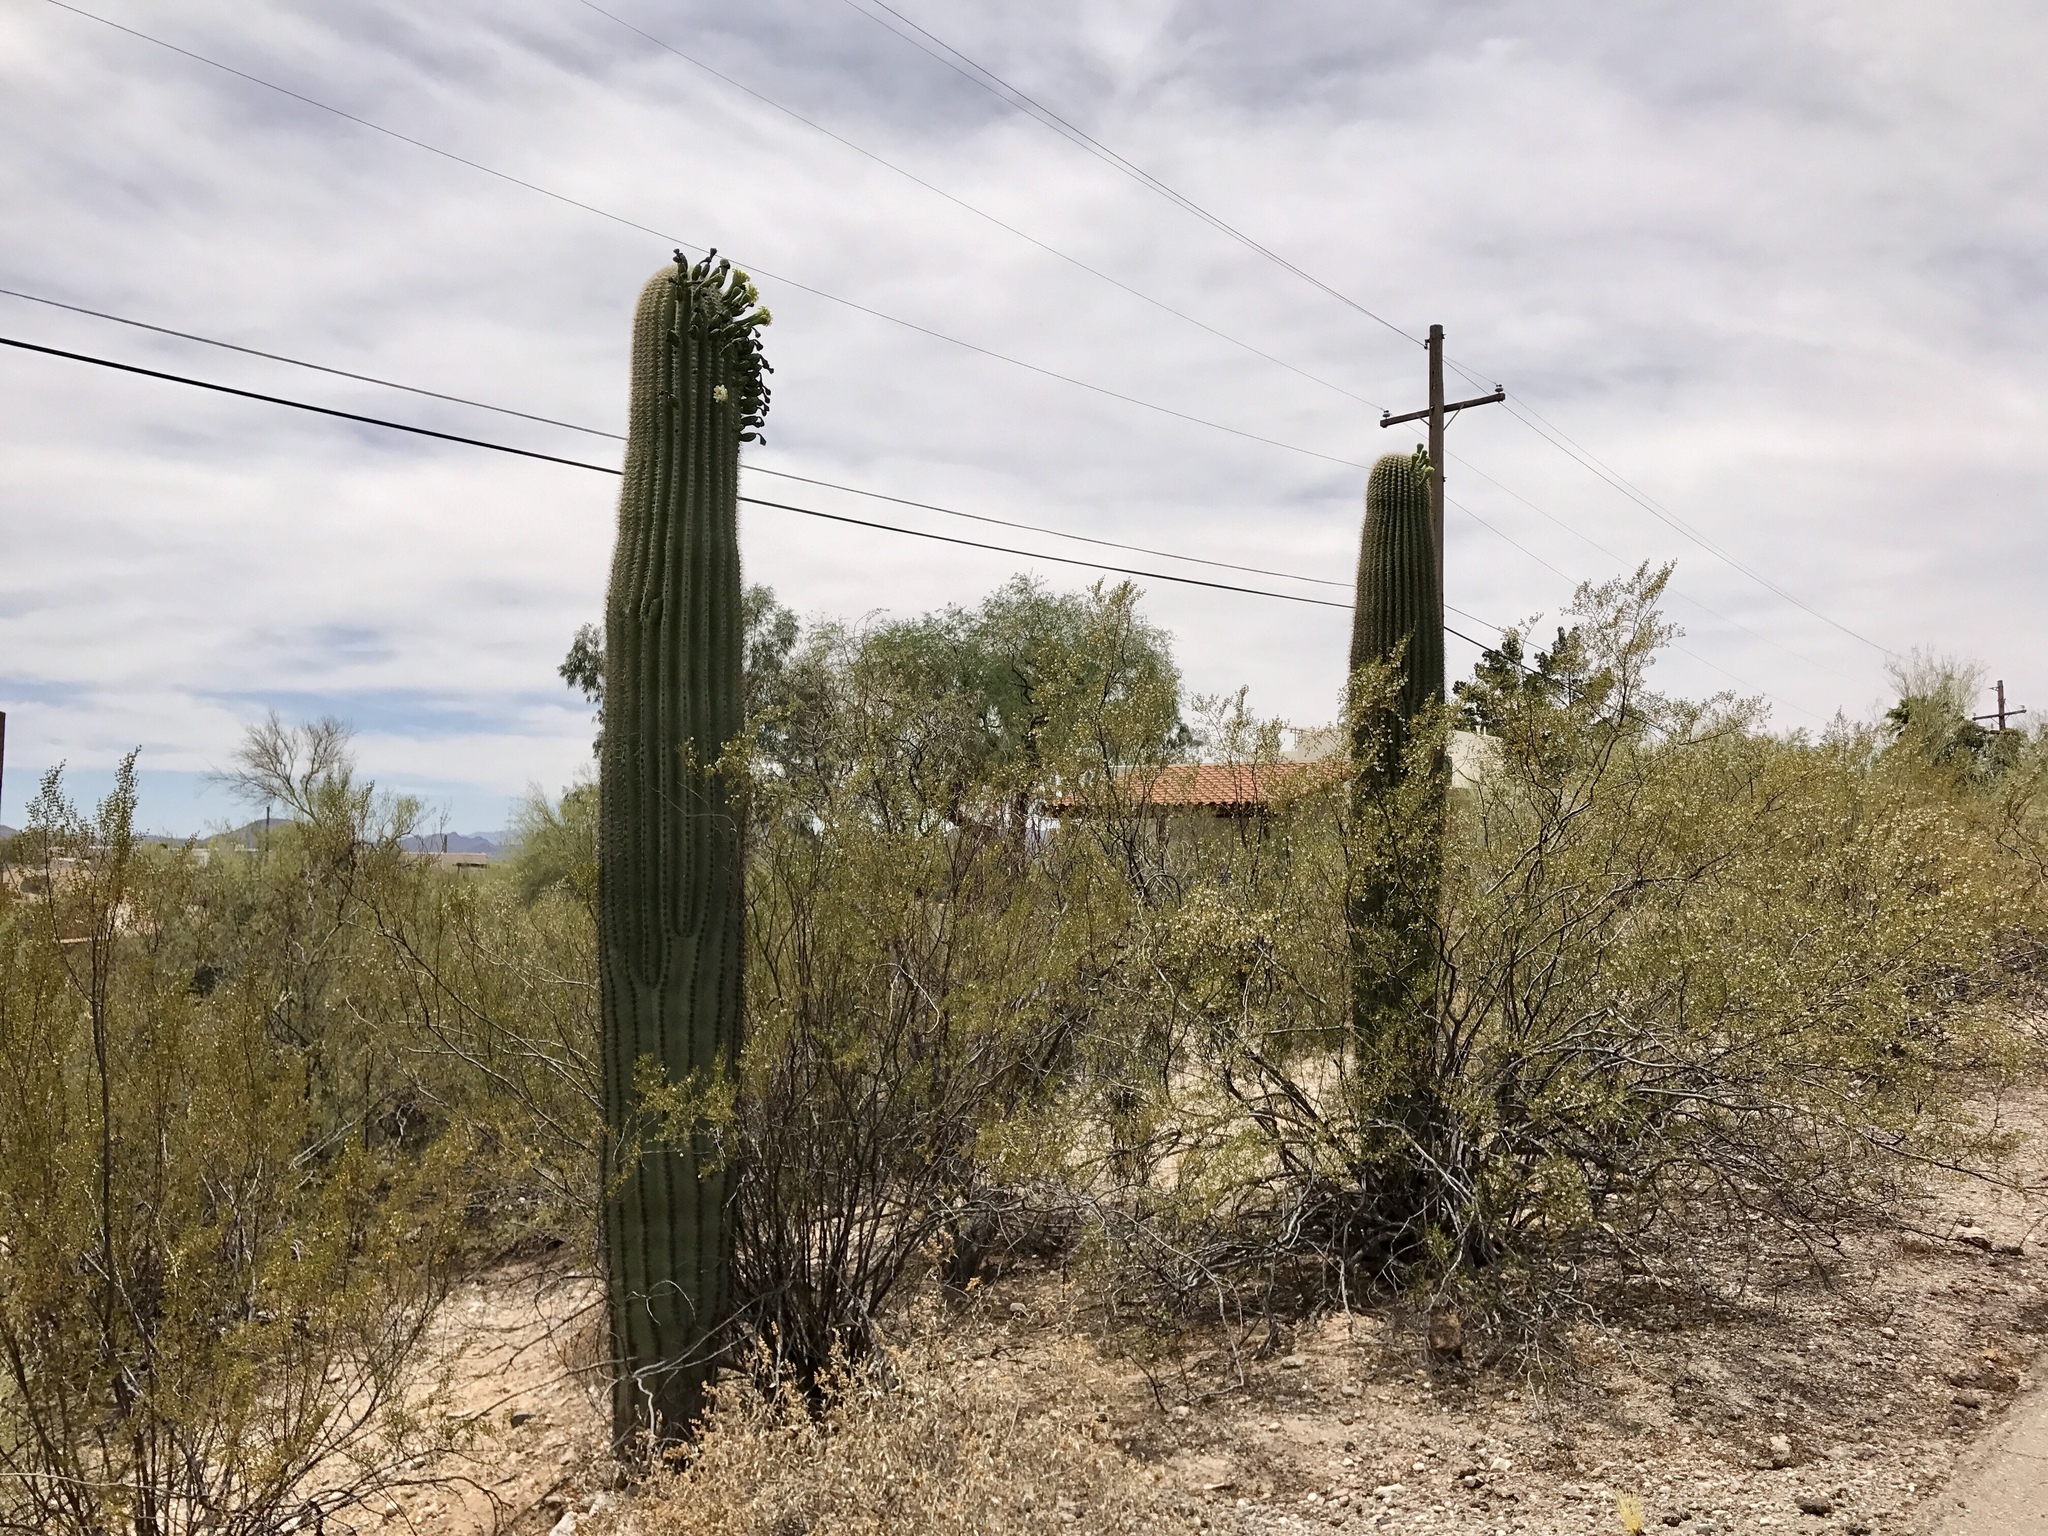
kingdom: Plantae
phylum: Tracheophyta
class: Magnoliopsida
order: Caryophyllales
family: Cactaceae
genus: Carnegiea
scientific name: Carnegiea gigantea
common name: Saguaro
